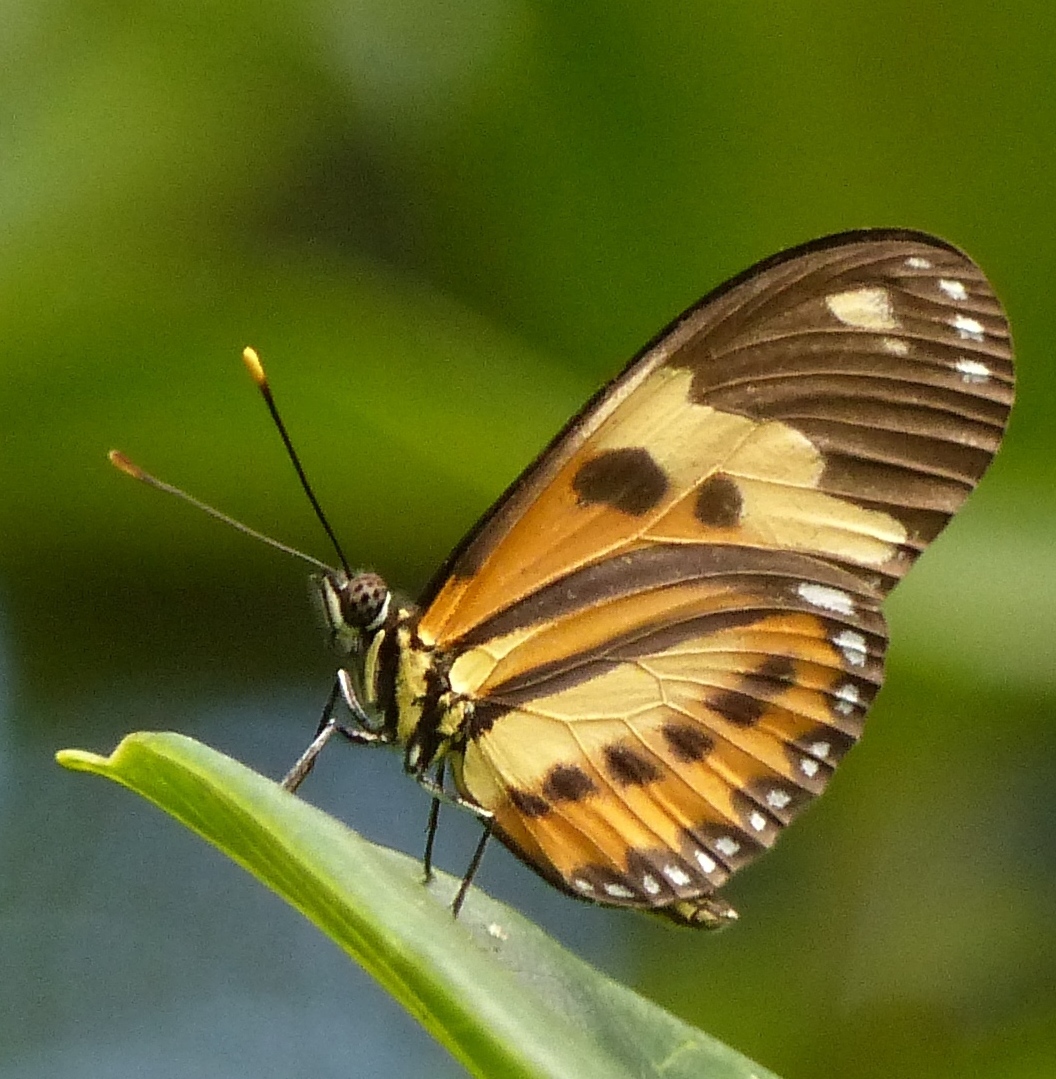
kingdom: Animalia
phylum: Arthropoda
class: Insecta
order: Lepidoptera
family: Nymphalidae
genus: Eueides
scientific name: Eueides isabella
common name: Isabella's longwing
